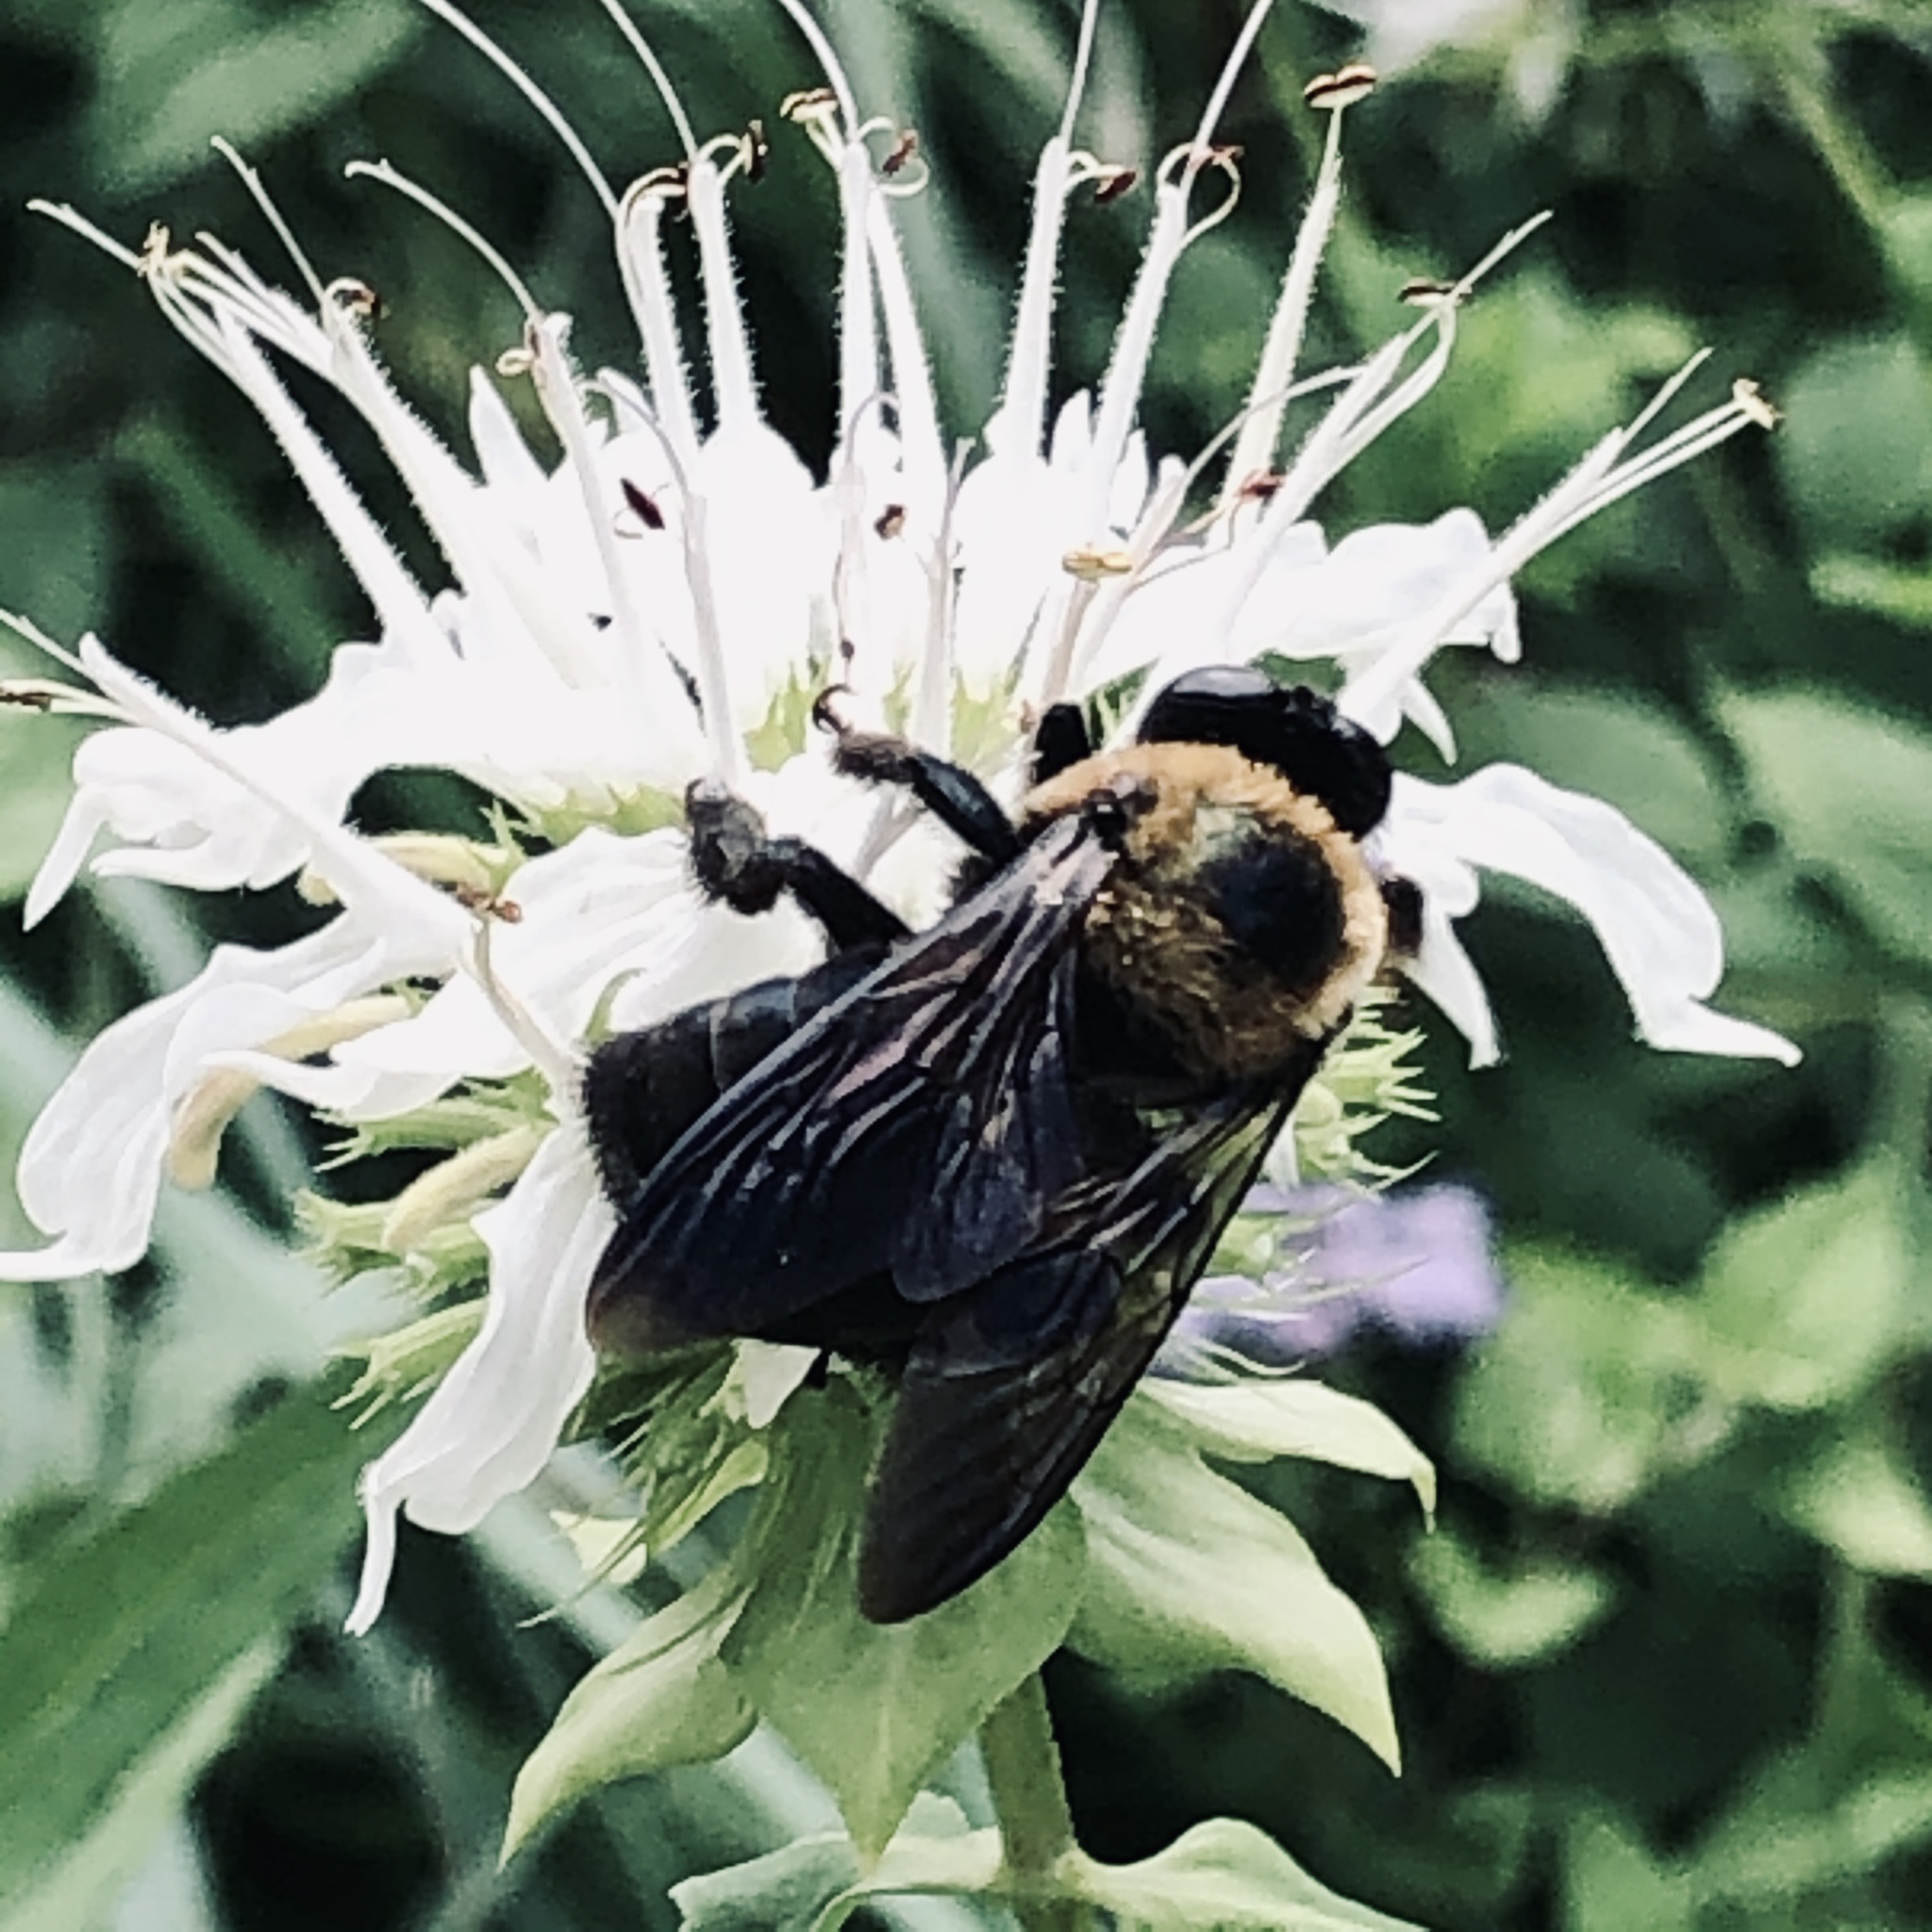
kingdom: Animalia
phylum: Arthropoda
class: Insecta
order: Hymenoptera
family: Apidae
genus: Xylocopa
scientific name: Xylocopa virginica
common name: Carpenter bee
